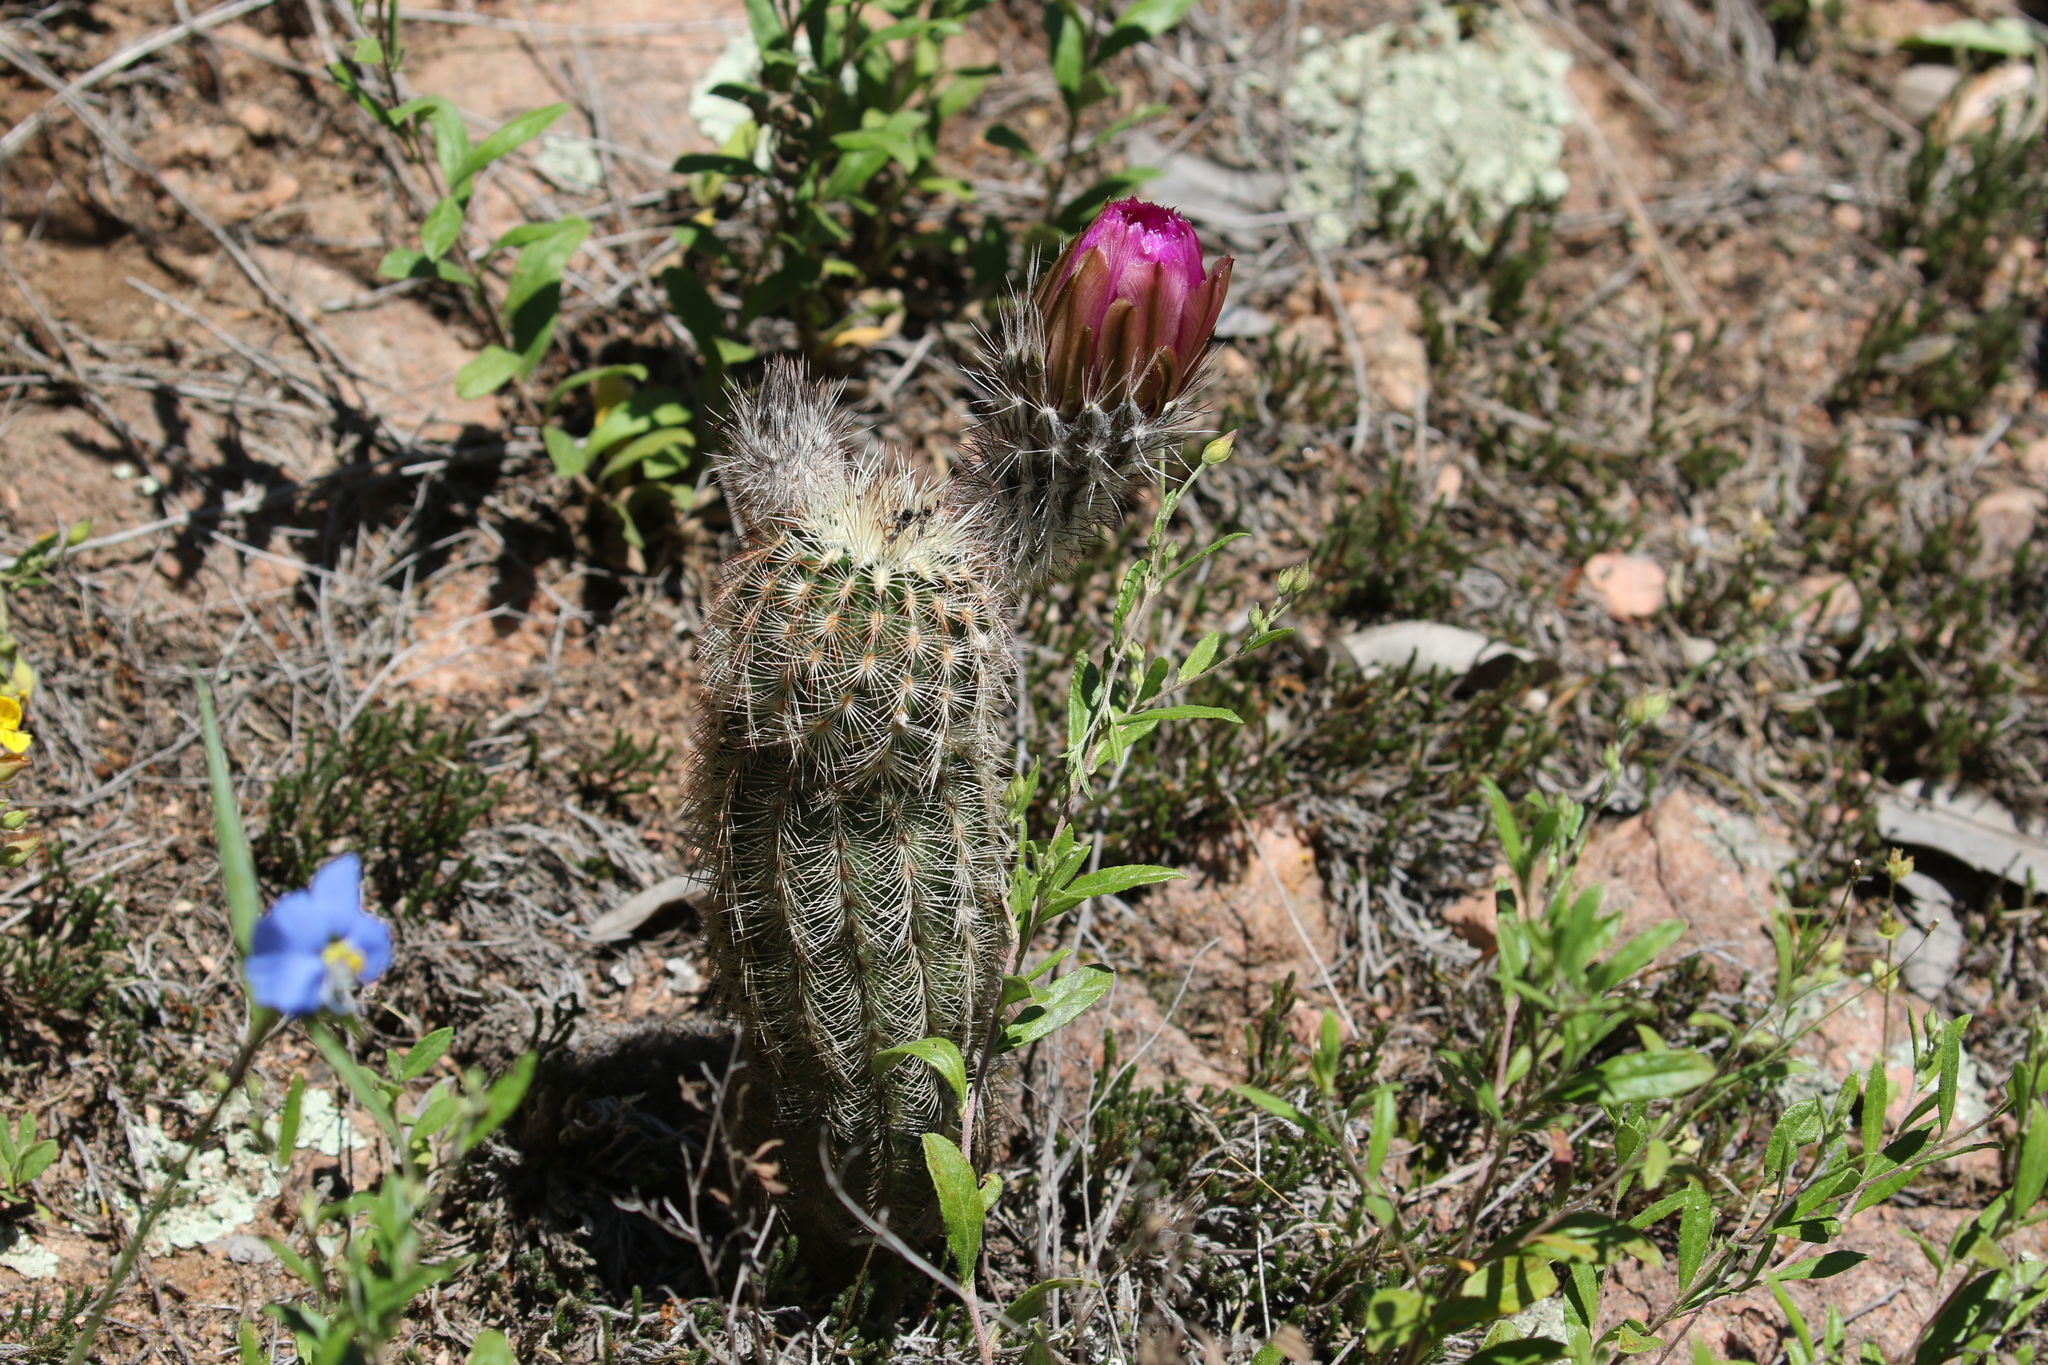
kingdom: Plantae
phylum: Tracheophyta
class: Magnoliopsida
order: Caryophyllales
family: Cactaceae
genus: Echinocereus
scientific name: Echinocereus reichenbachii
